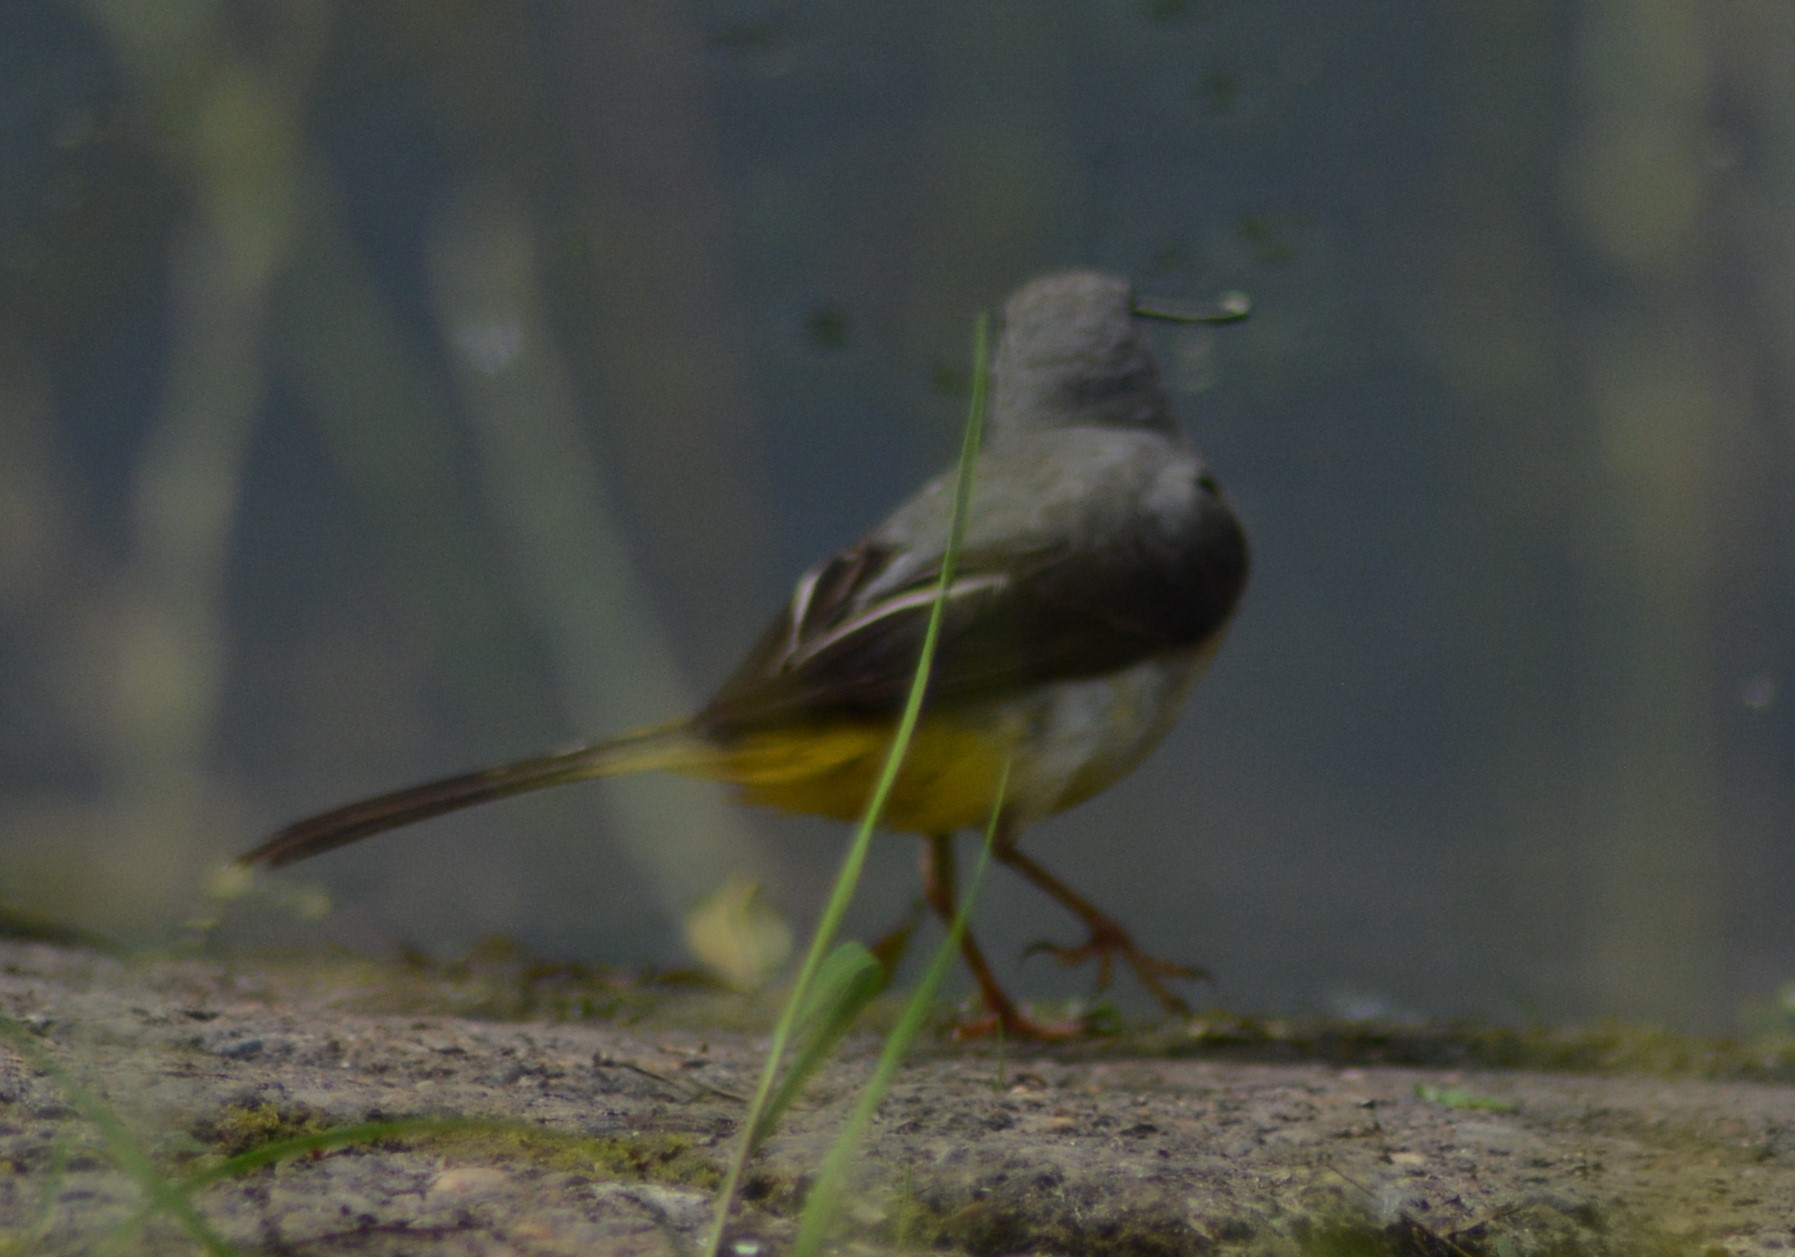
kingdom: Animalia
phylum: Chordata
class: Aves
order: Passeriformes
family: Motacillidae
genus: Motacilla
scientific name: Motacilla cinerea
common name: Grey wagtail
